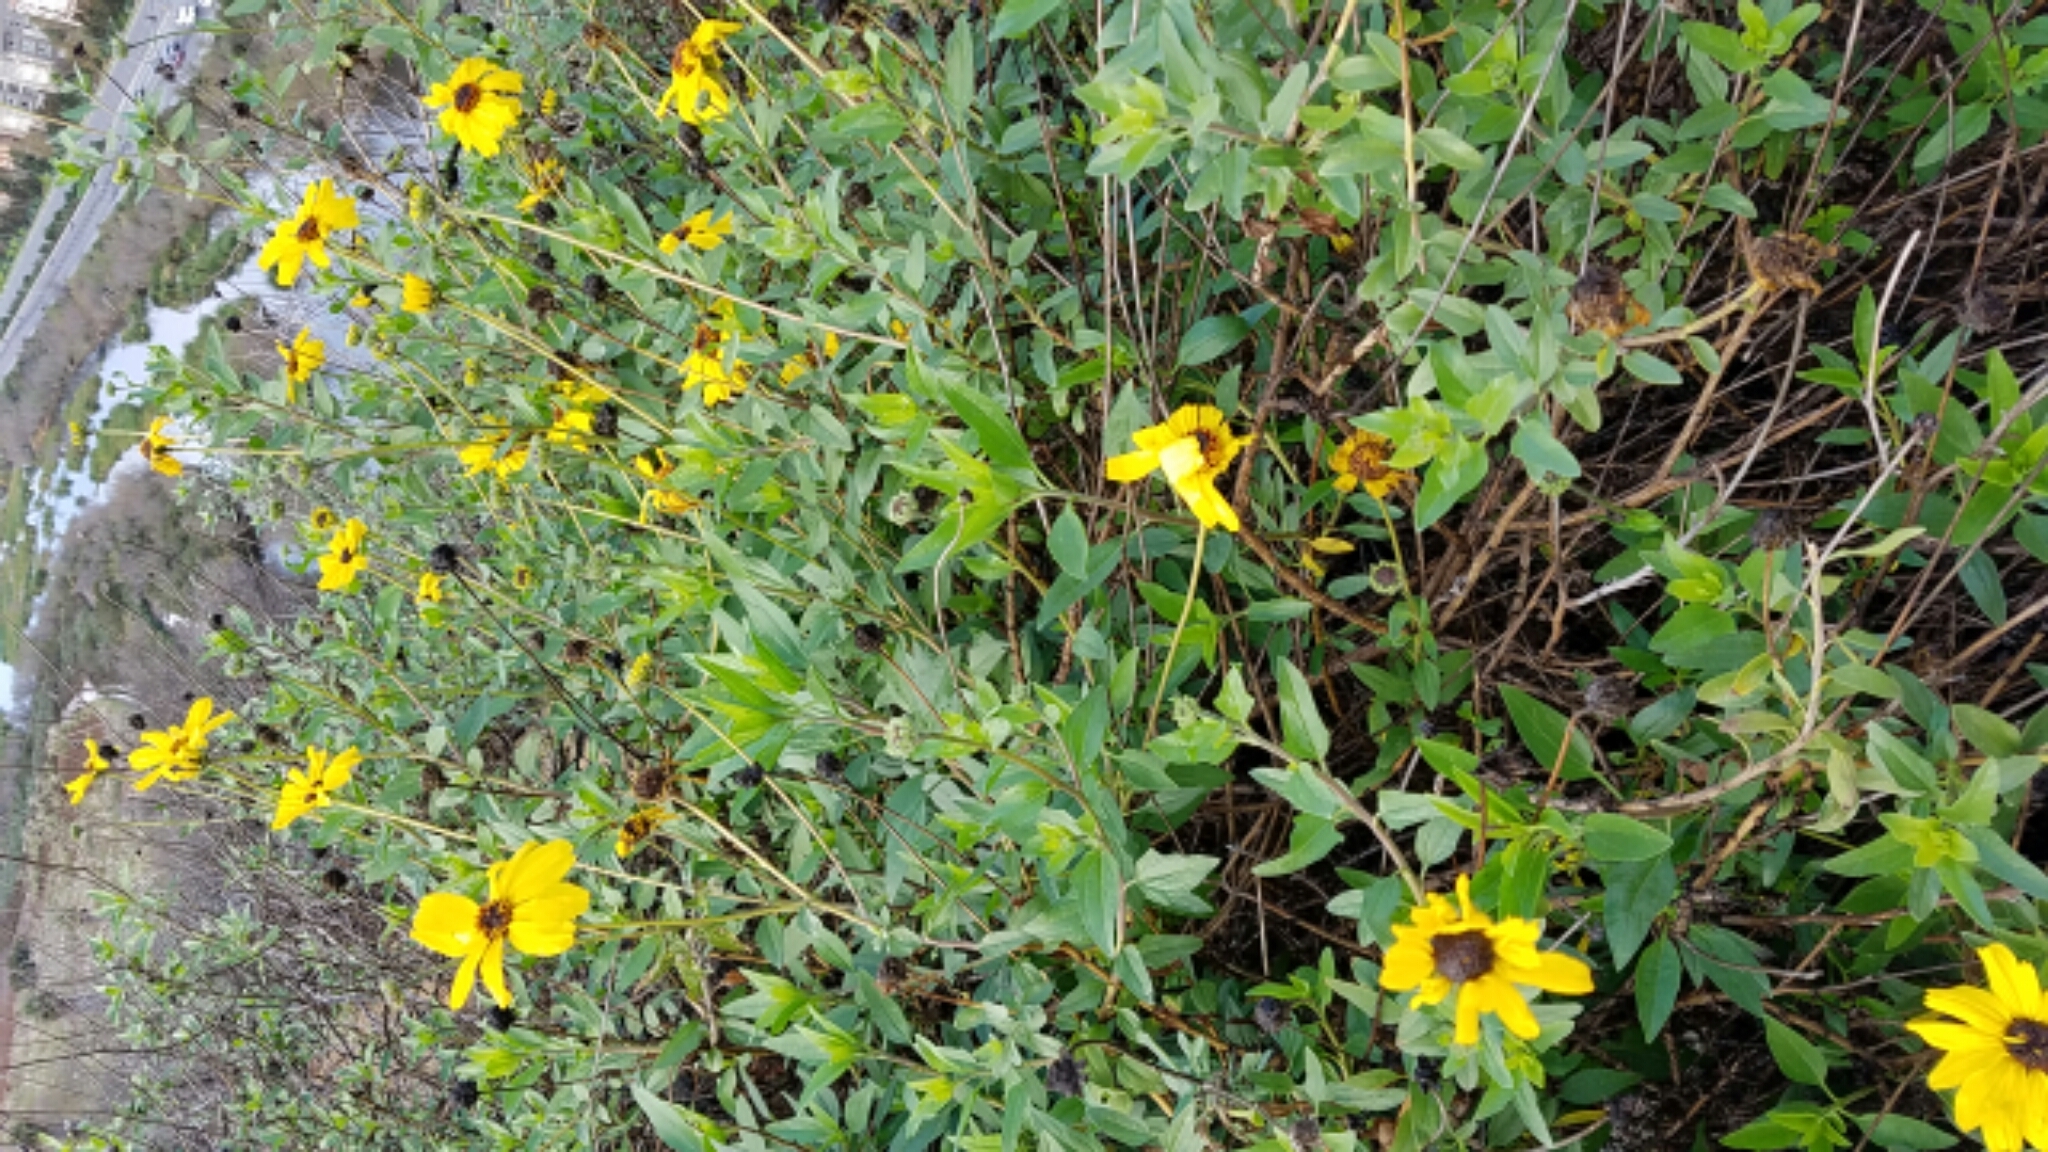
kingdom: Plantae
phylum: Tracheophyta
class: Magnoliopsida
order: Asterales
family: Asteraceae
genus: Encelia
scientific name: Encelia californica
